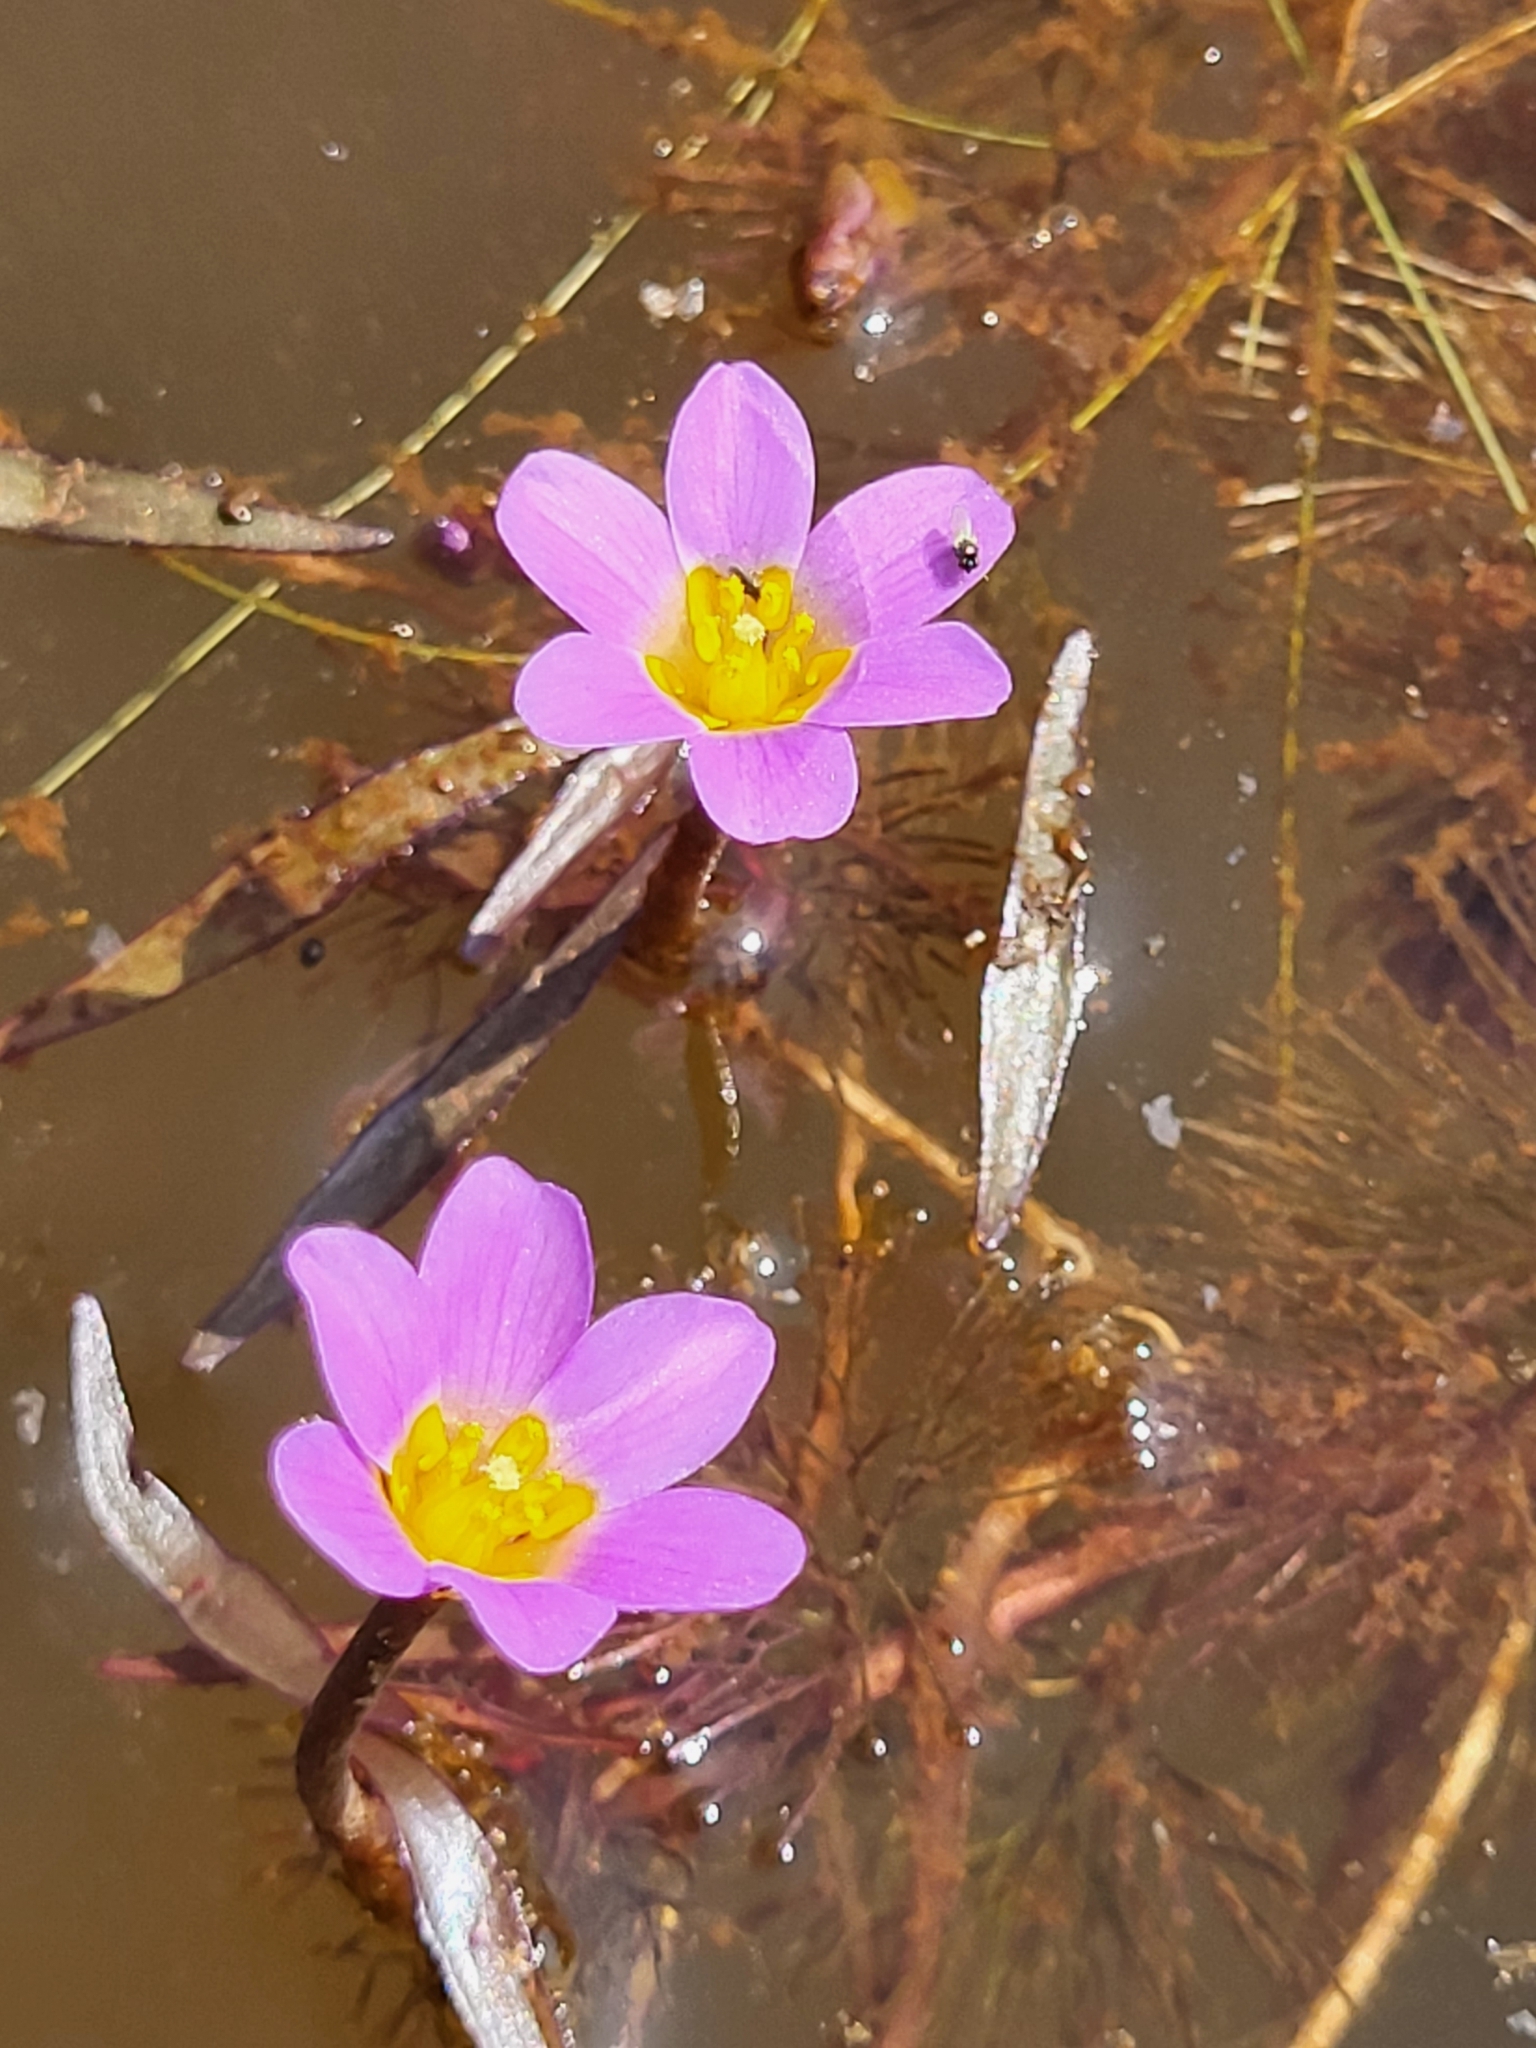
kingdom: Plantae
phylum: Tracheophyta
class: Magnoliopsida
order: Nymphaeales
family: Cabombaceae
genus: Cabomba
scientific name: Cabomba furcata
